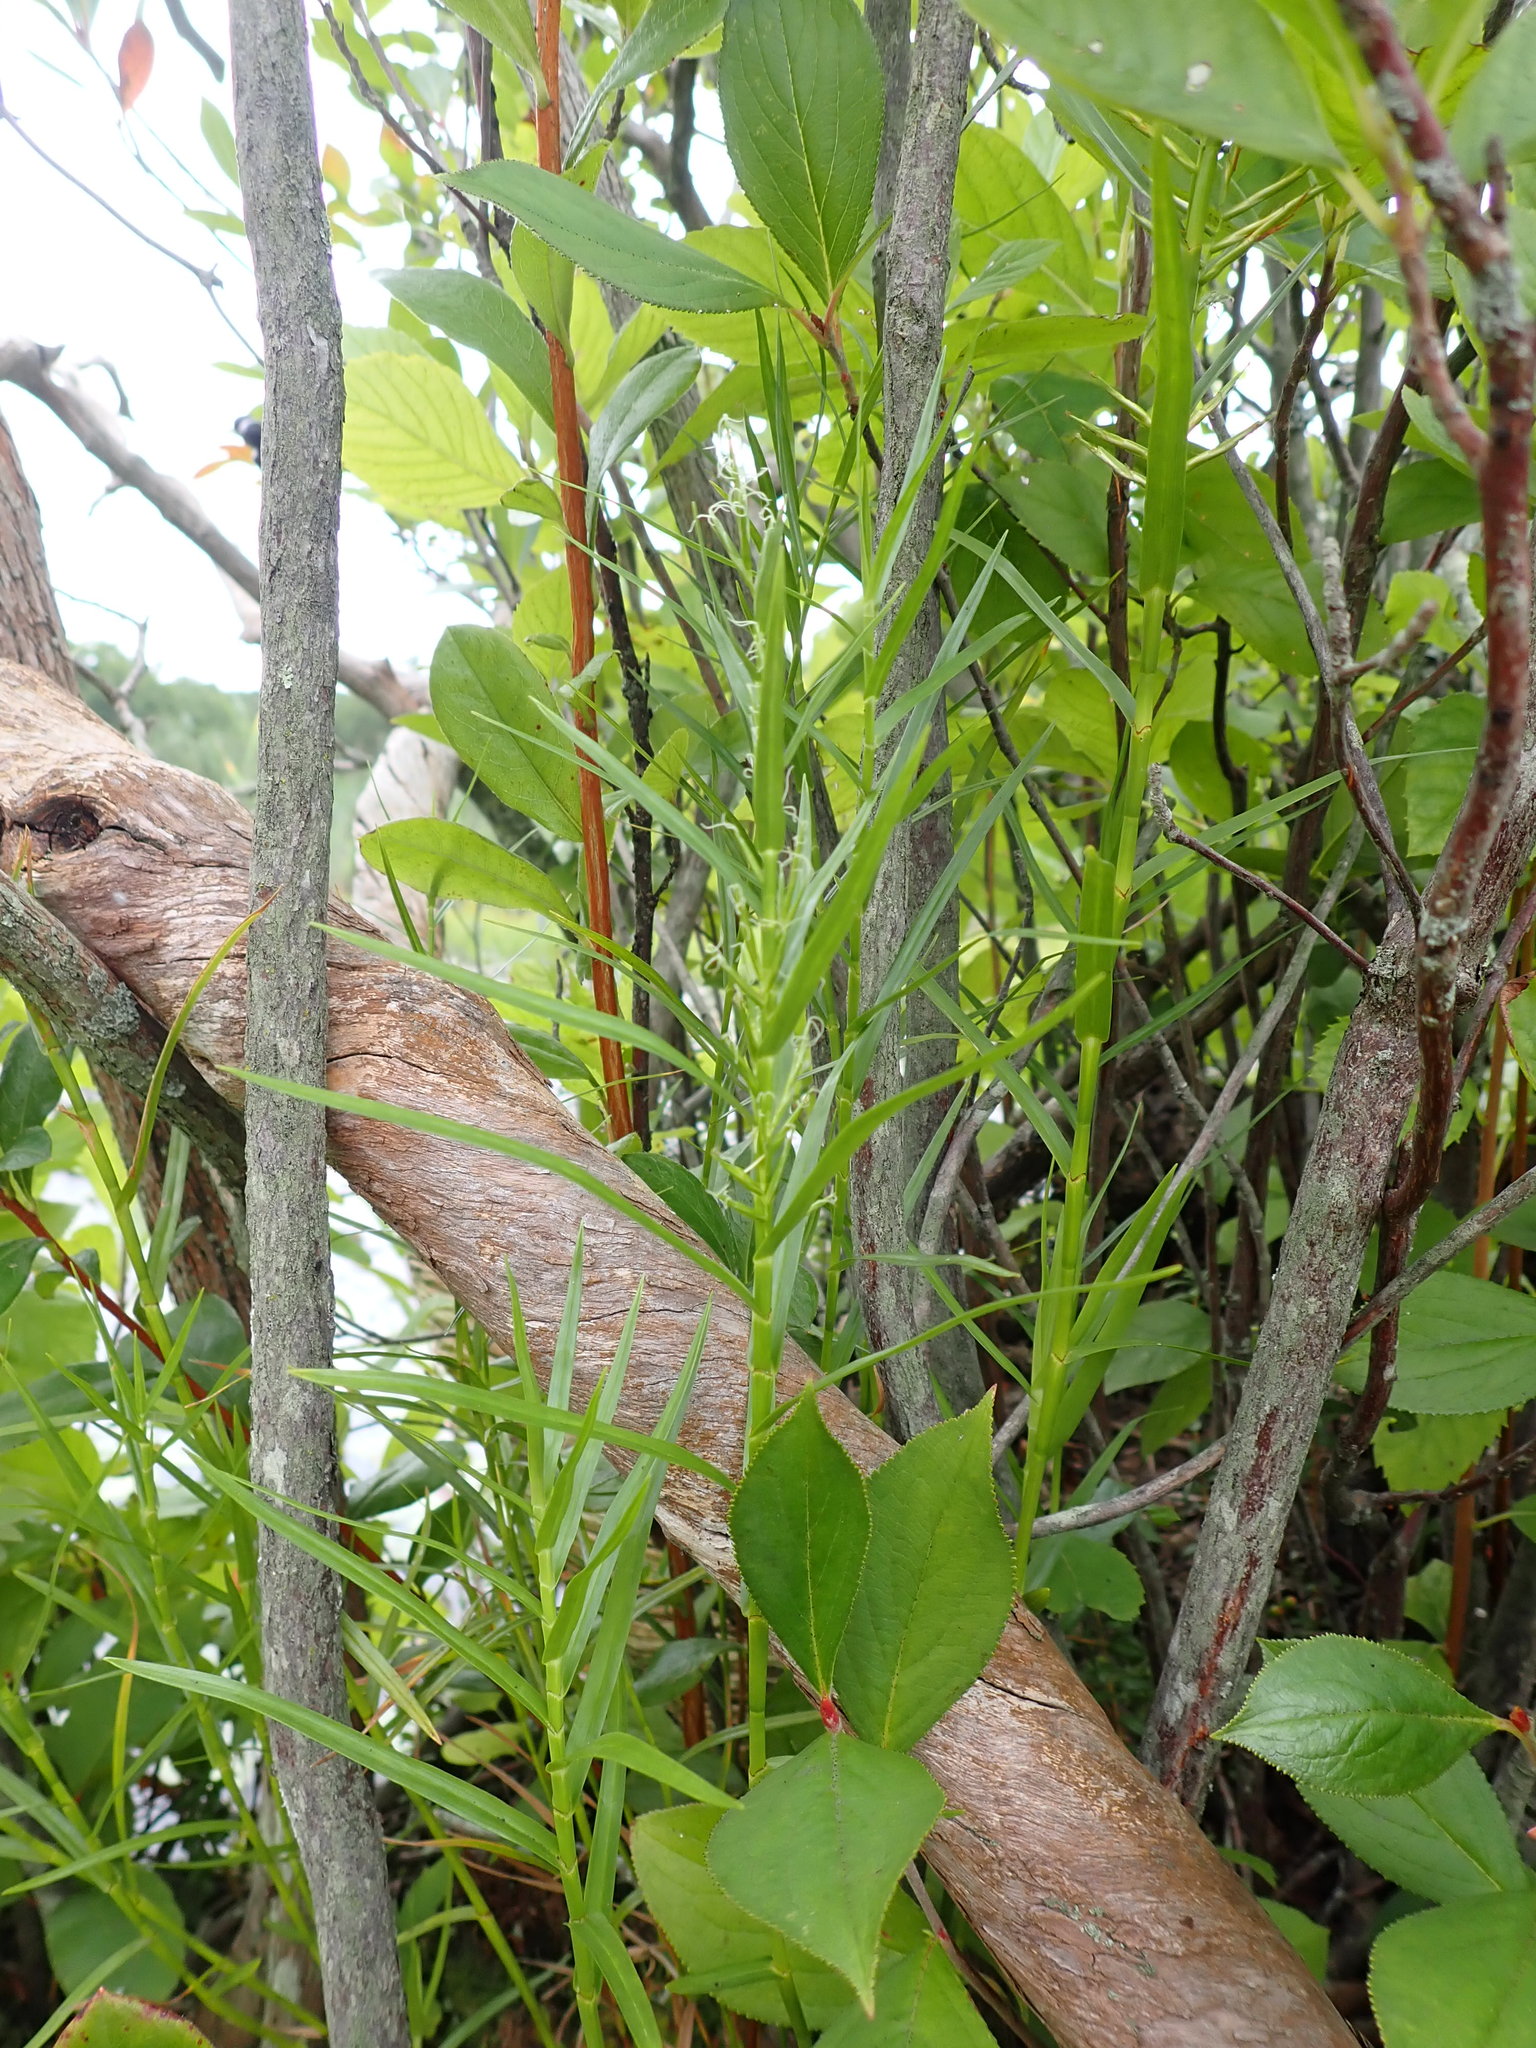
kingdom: Plantae
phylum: Tracheophyta
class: Liliopsida
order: Poales
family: Cyperaceae
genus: Dulichium
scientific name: Dulichium arundinaceum
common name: Three-way sedge
